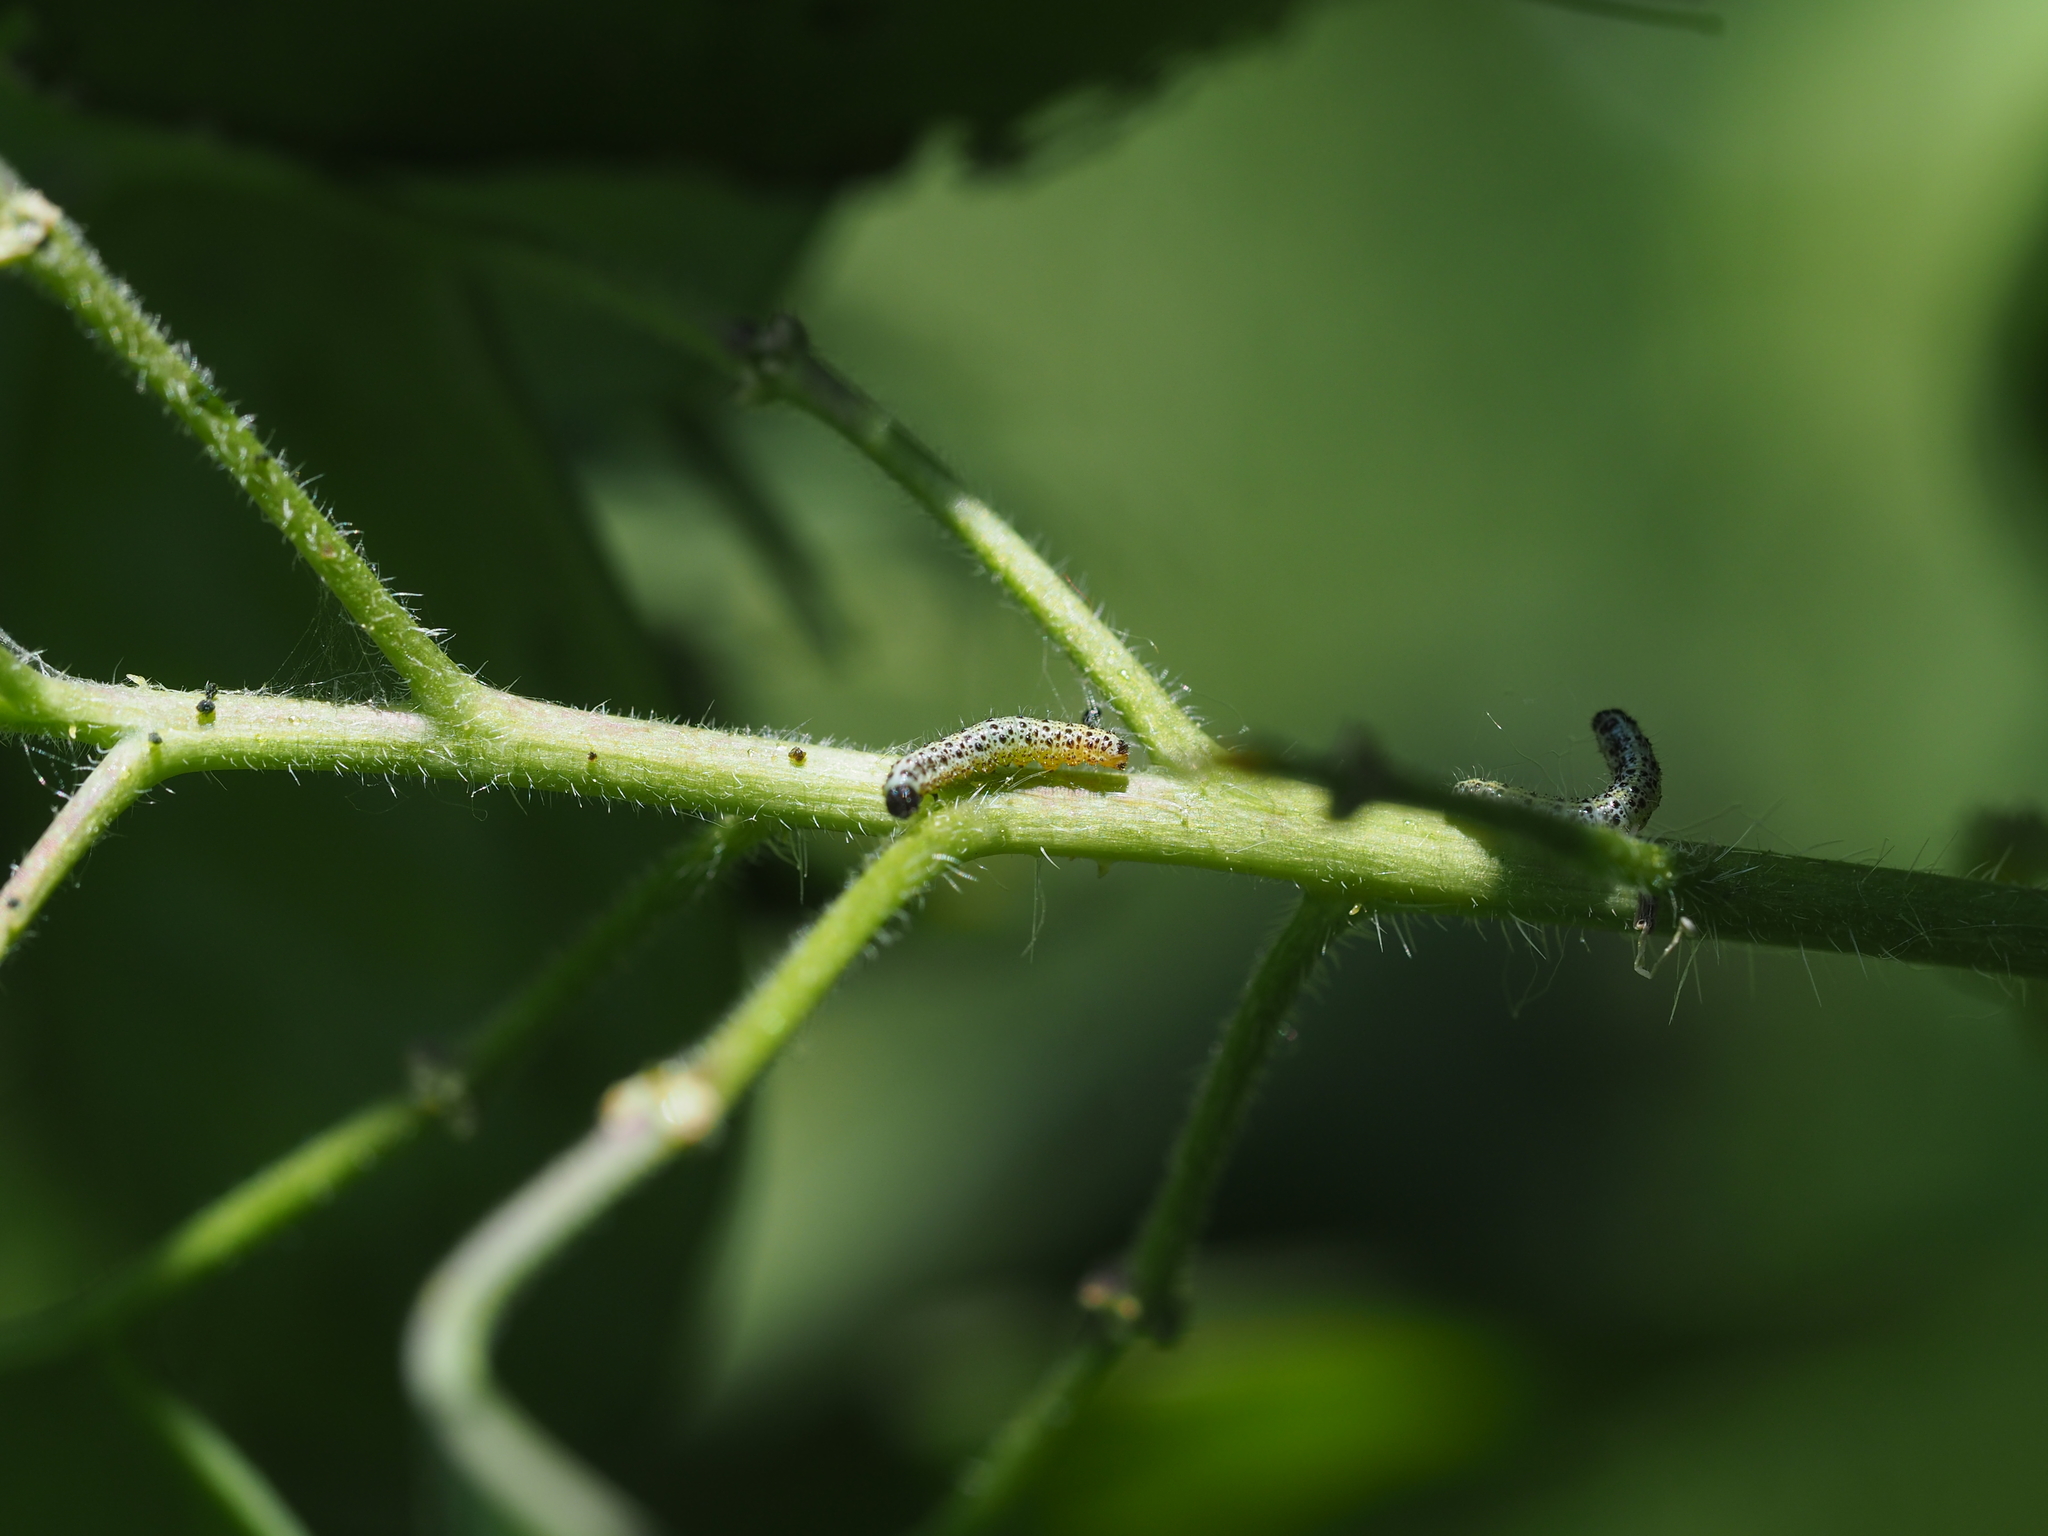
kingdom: Animalia
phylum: Arthropoda
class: Insecta
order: Lepidoptera
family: Pieridae
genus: Pieris
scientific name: Pieris brassicae
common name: Large white
